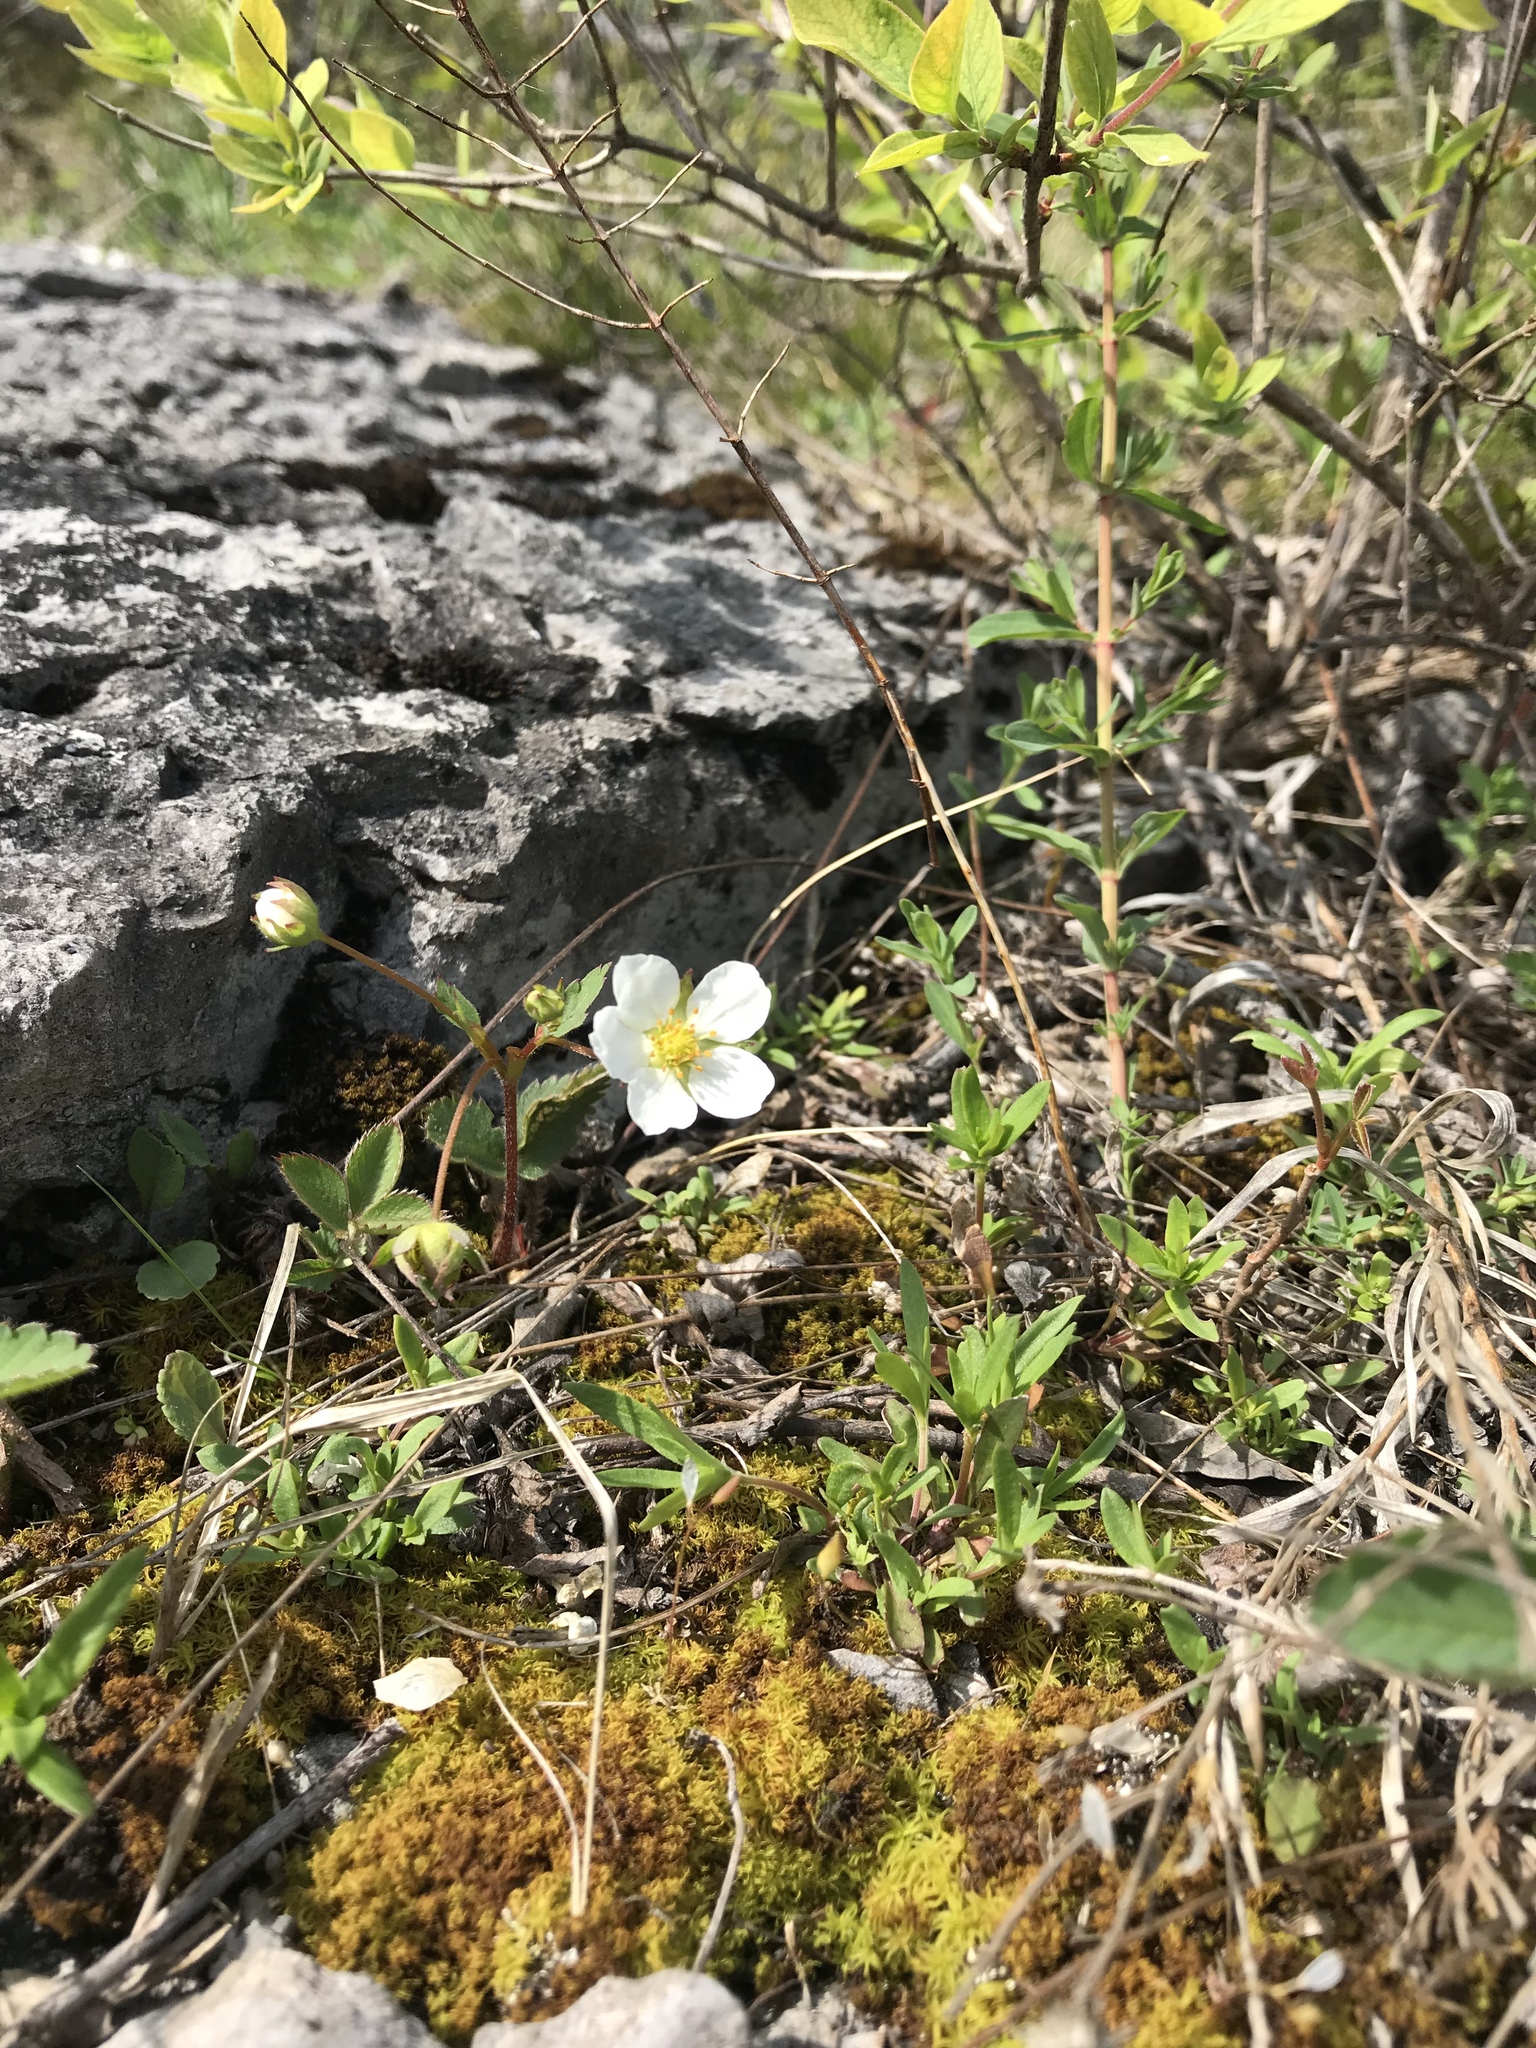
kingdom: Plantae
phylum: Tracheophyta
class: Magnoliopsida
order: Rosales
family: Rosaceae
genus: Fragaria
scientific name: Fragaria virginiana
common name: Thickleaved wild strawberry
